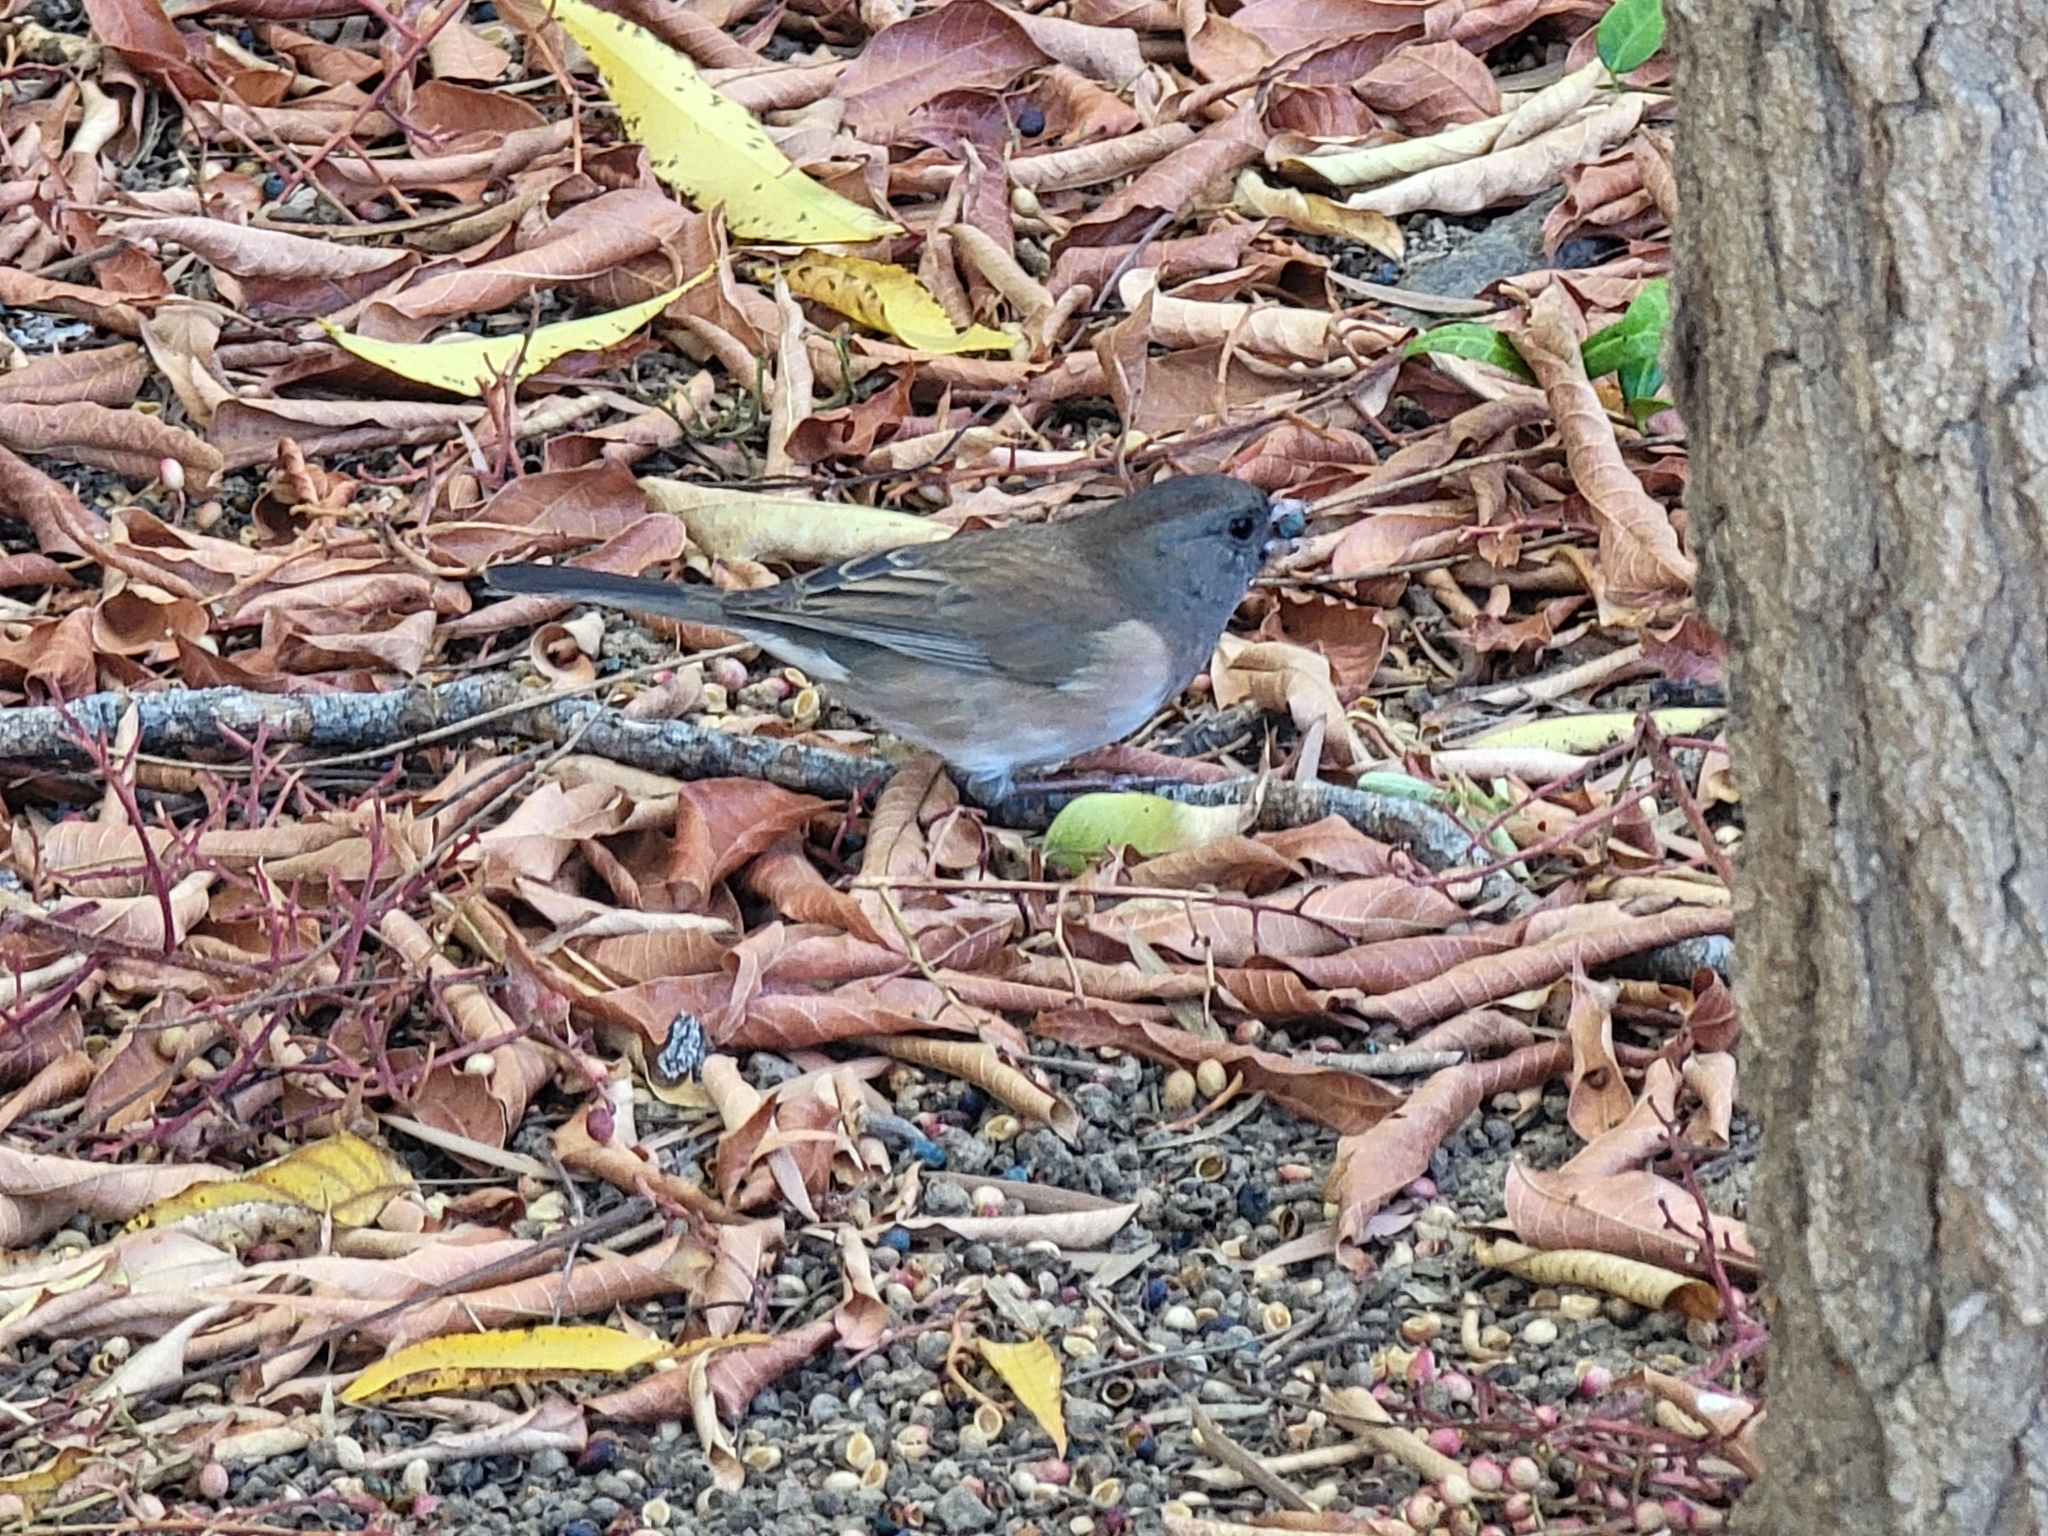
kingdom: Animalia
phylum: Chordata
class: Aves
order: Passeriformes
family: Passerellidae
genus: Junco
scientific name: Junco hyemalis
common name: Dark-eyed junco
